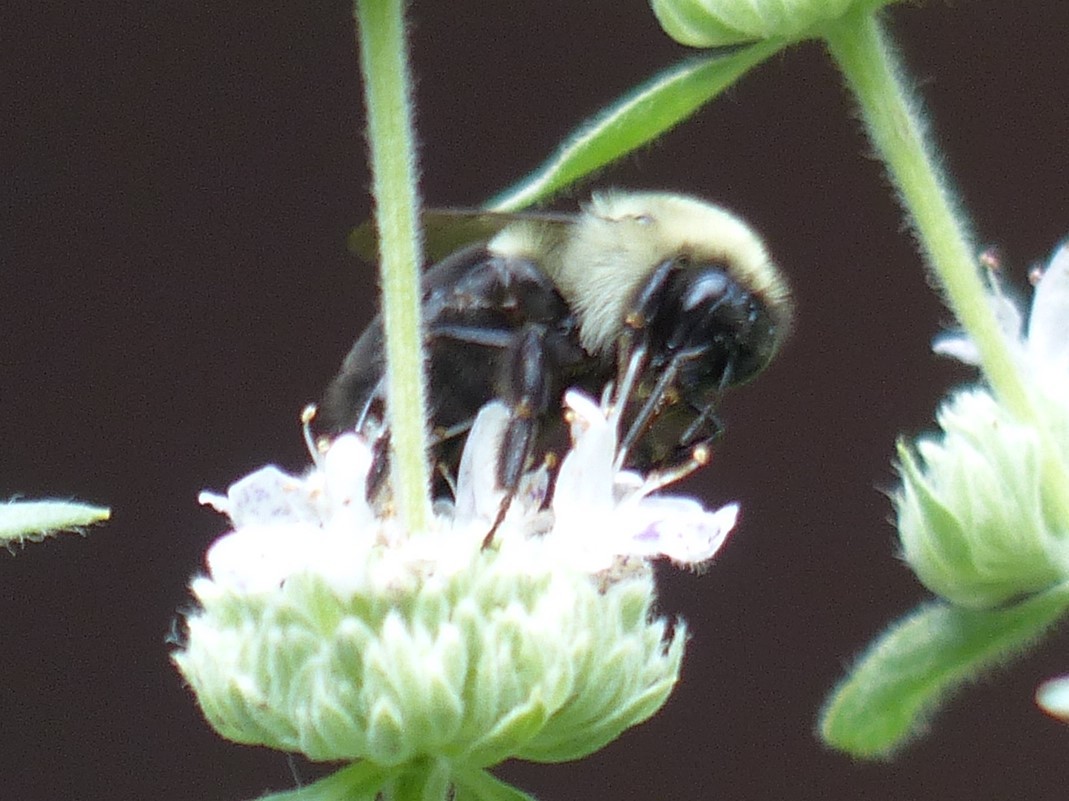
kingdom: Animalia
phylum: Arthropoda
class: Insecta
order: Hymenoptera
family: Apidae
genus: Bombus
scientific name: Bombus impatiens
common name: Common eastern bumble bee
